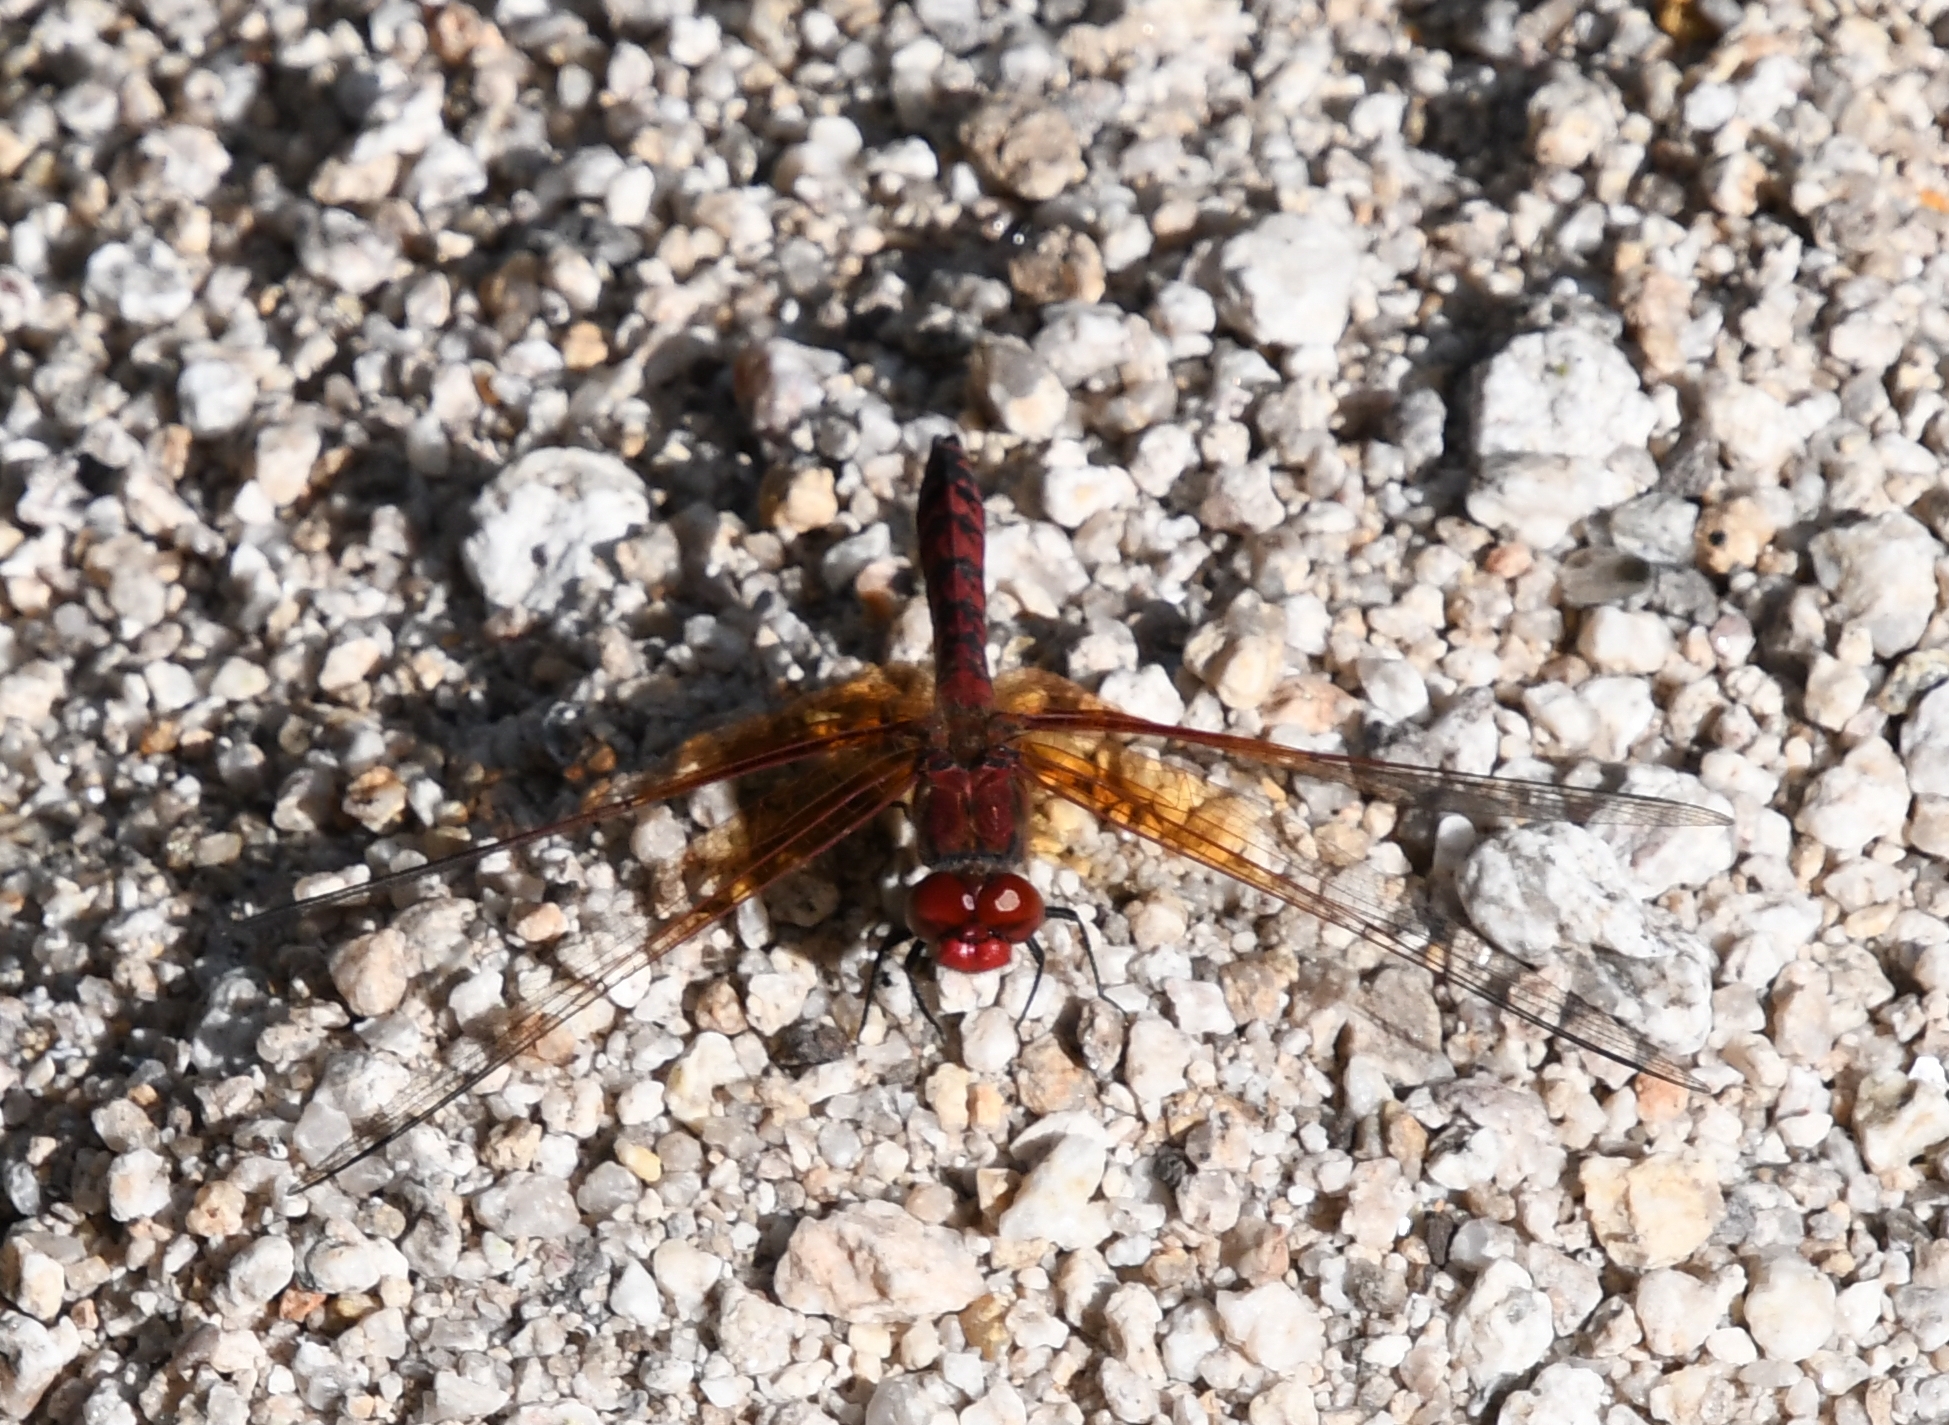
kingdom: Animalia
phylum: Arthropoda
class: Insecta
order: Odonata
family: Libellulidae
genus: Paltothemis
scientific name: Paltothemis lineatipes
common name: Red rock skimmer
